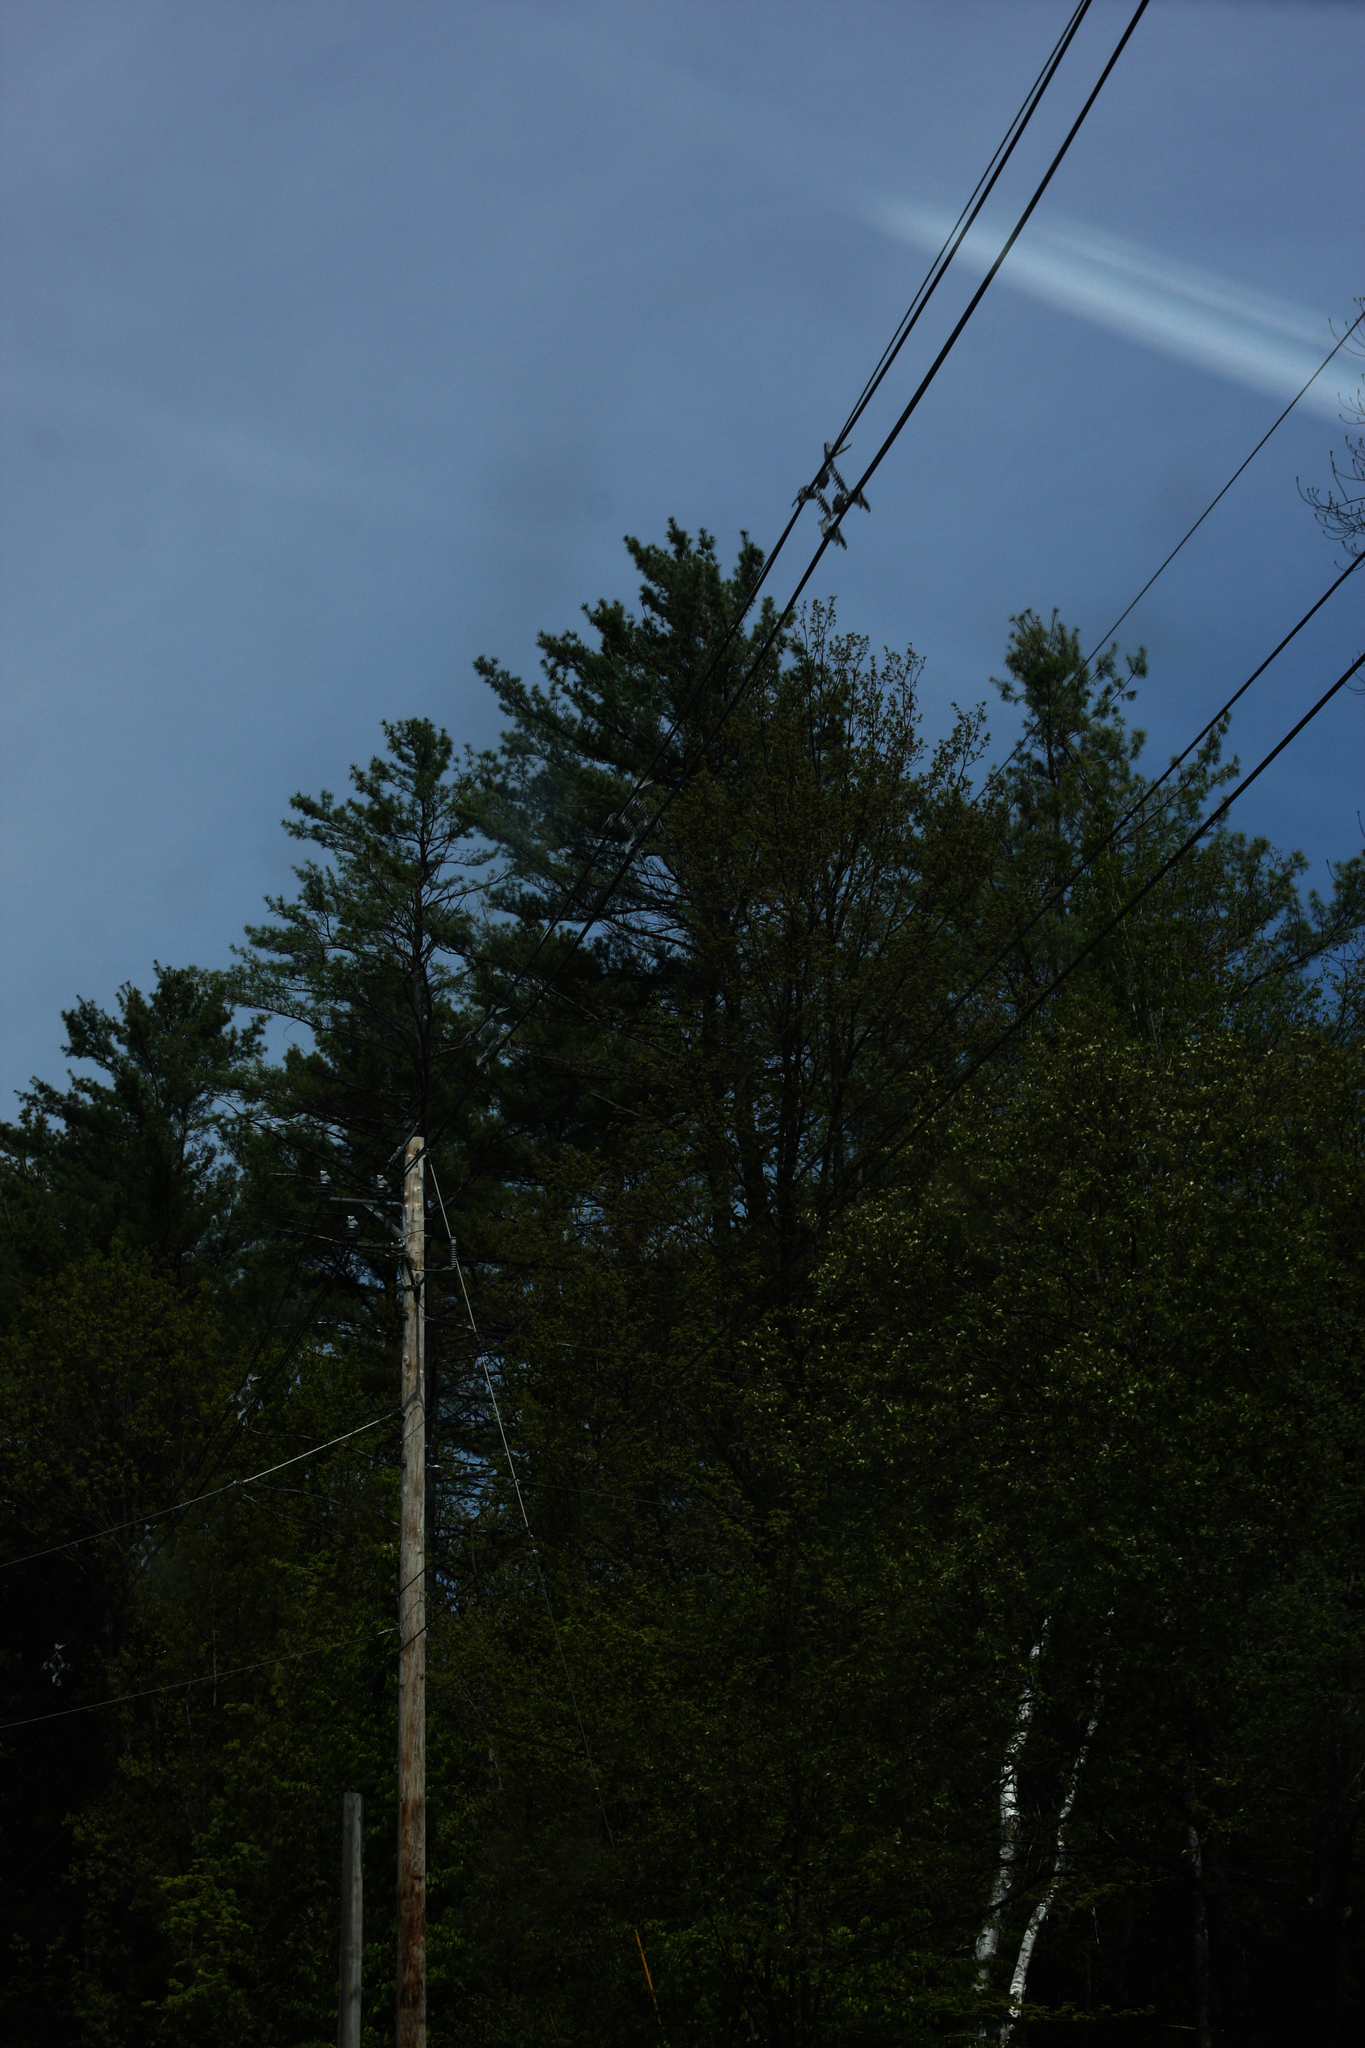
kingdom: Plantae
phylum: Tracheophyta
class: Pinopsida
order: Pinales
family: Pinaceae
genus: Pinus
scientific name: Pinus strobus
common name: Weymouth pine
